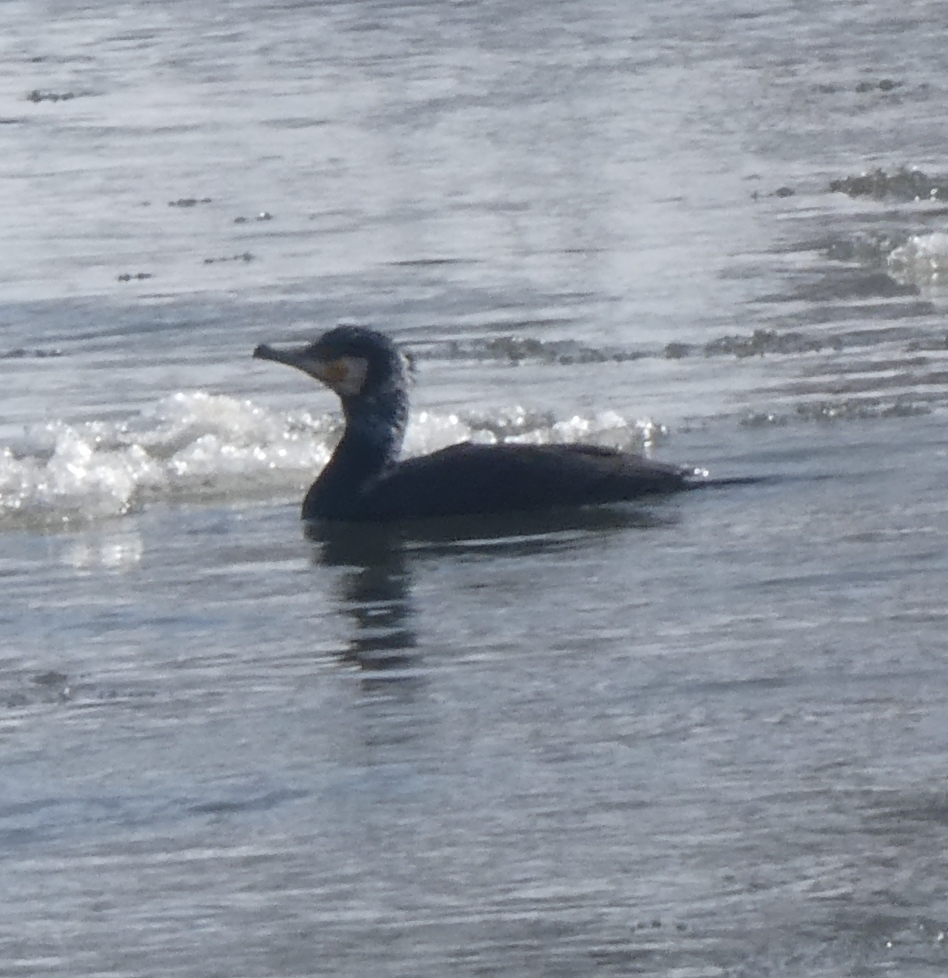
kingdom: Animalia
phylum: Chordata
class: Aves
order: Suliformes
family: Phalacrocoracidae
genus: Phalacrocorax
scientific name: Phalacrocorax carbo
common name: Great cormorant
